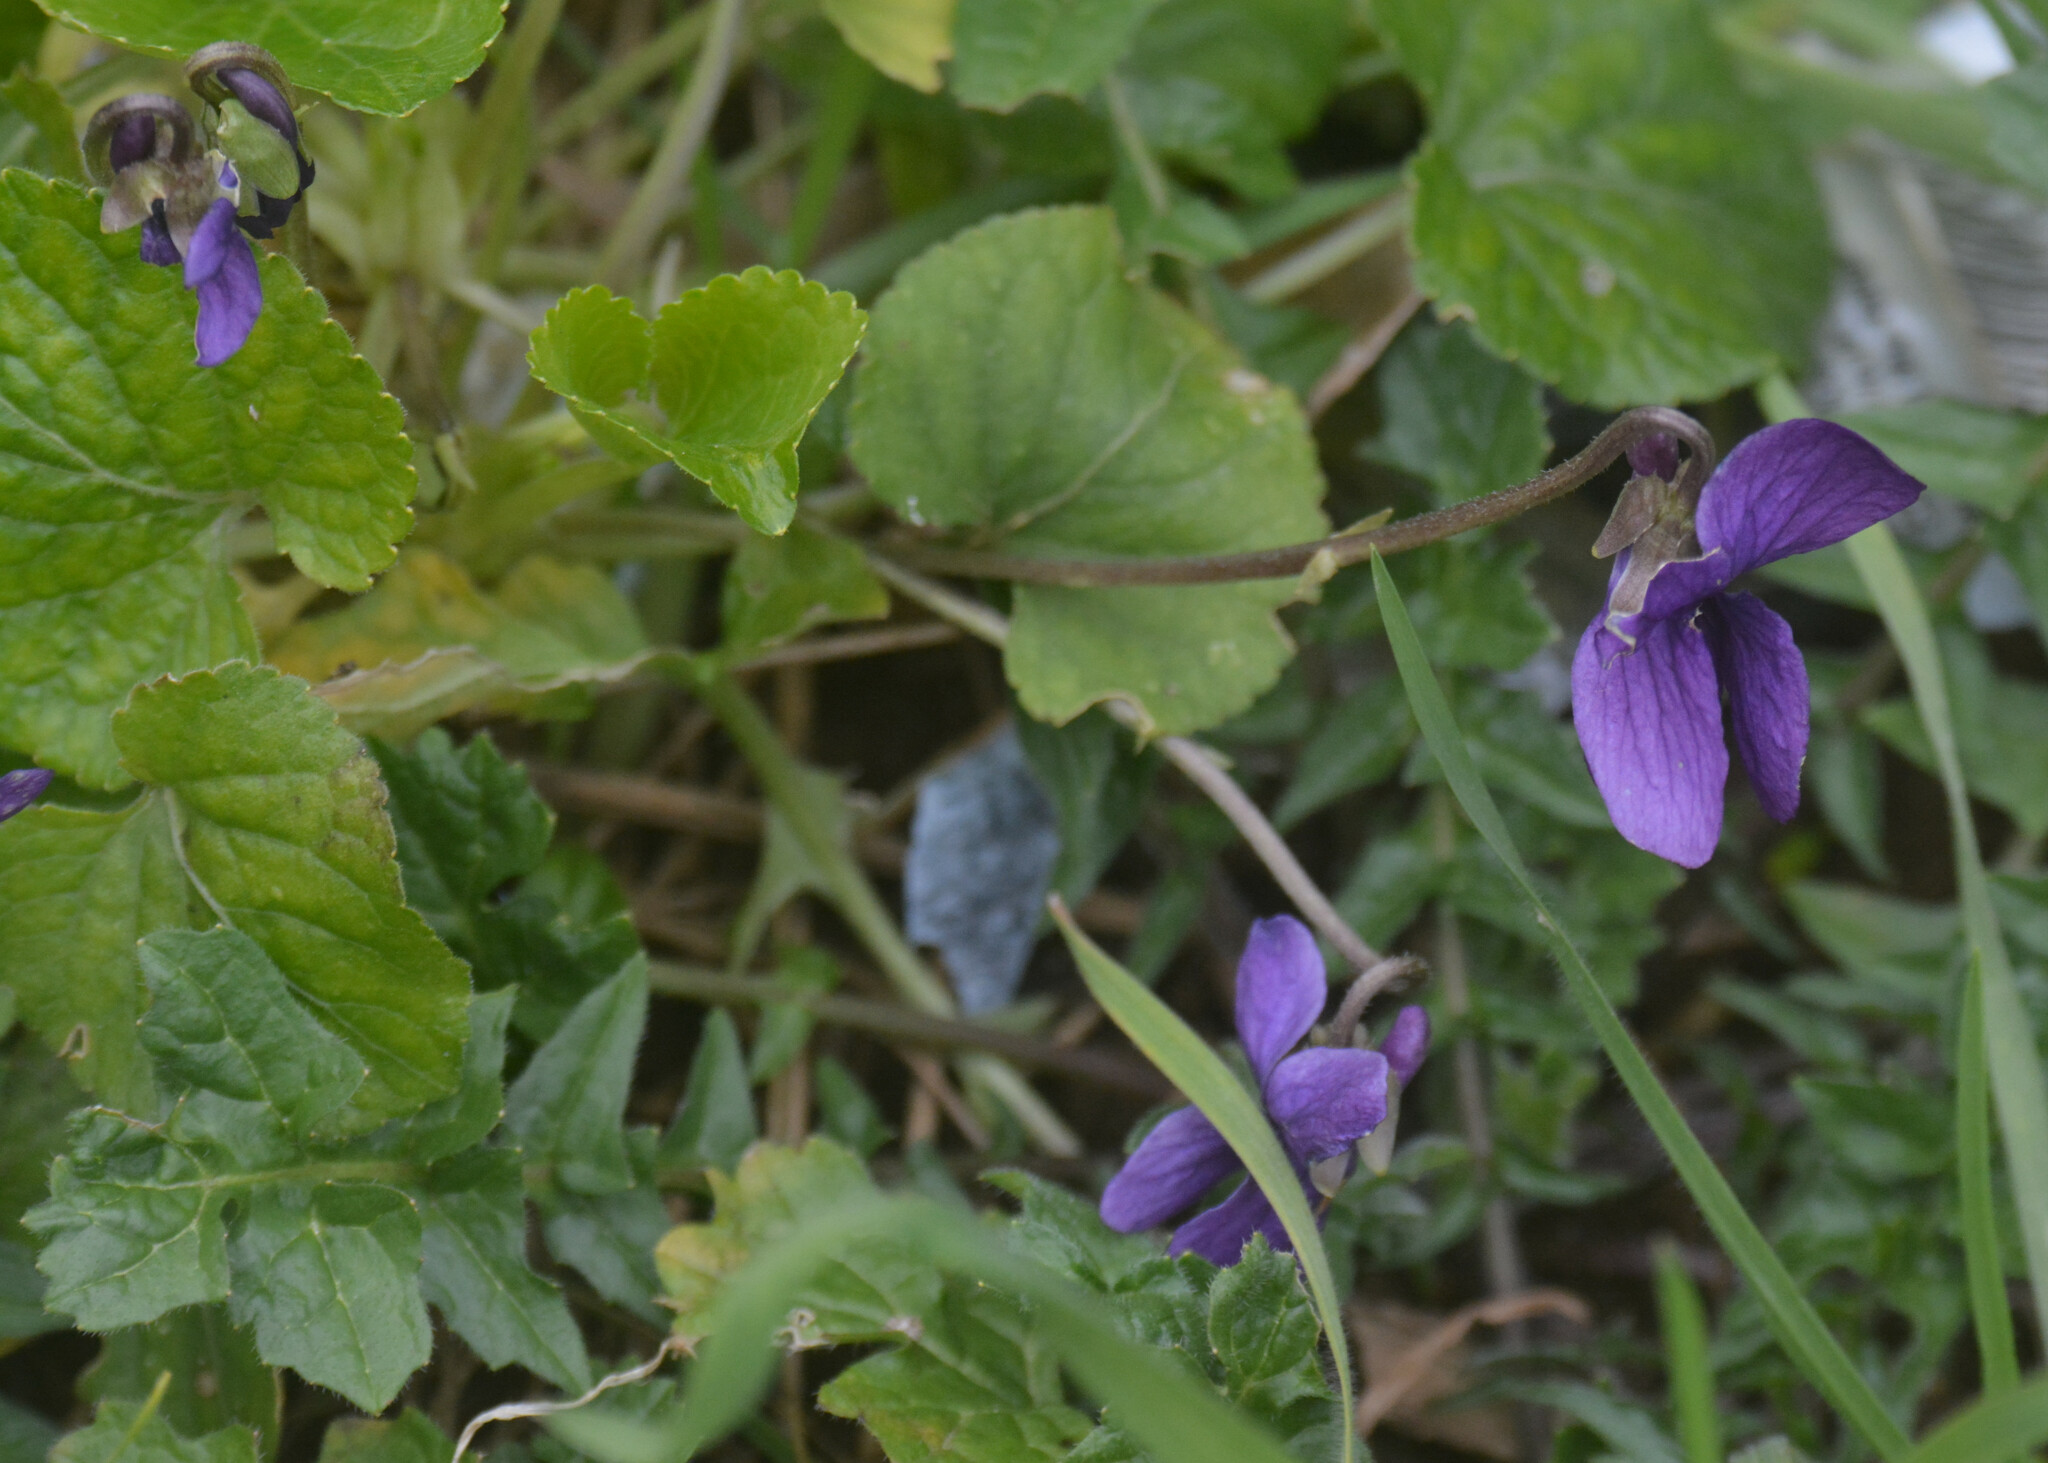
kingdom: Plantae
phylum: Tracheophyta
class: Magnoliopsida
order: Malpighiales
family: Violaceae
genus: Viola
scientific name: Viola odorata
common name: Sweet violet
